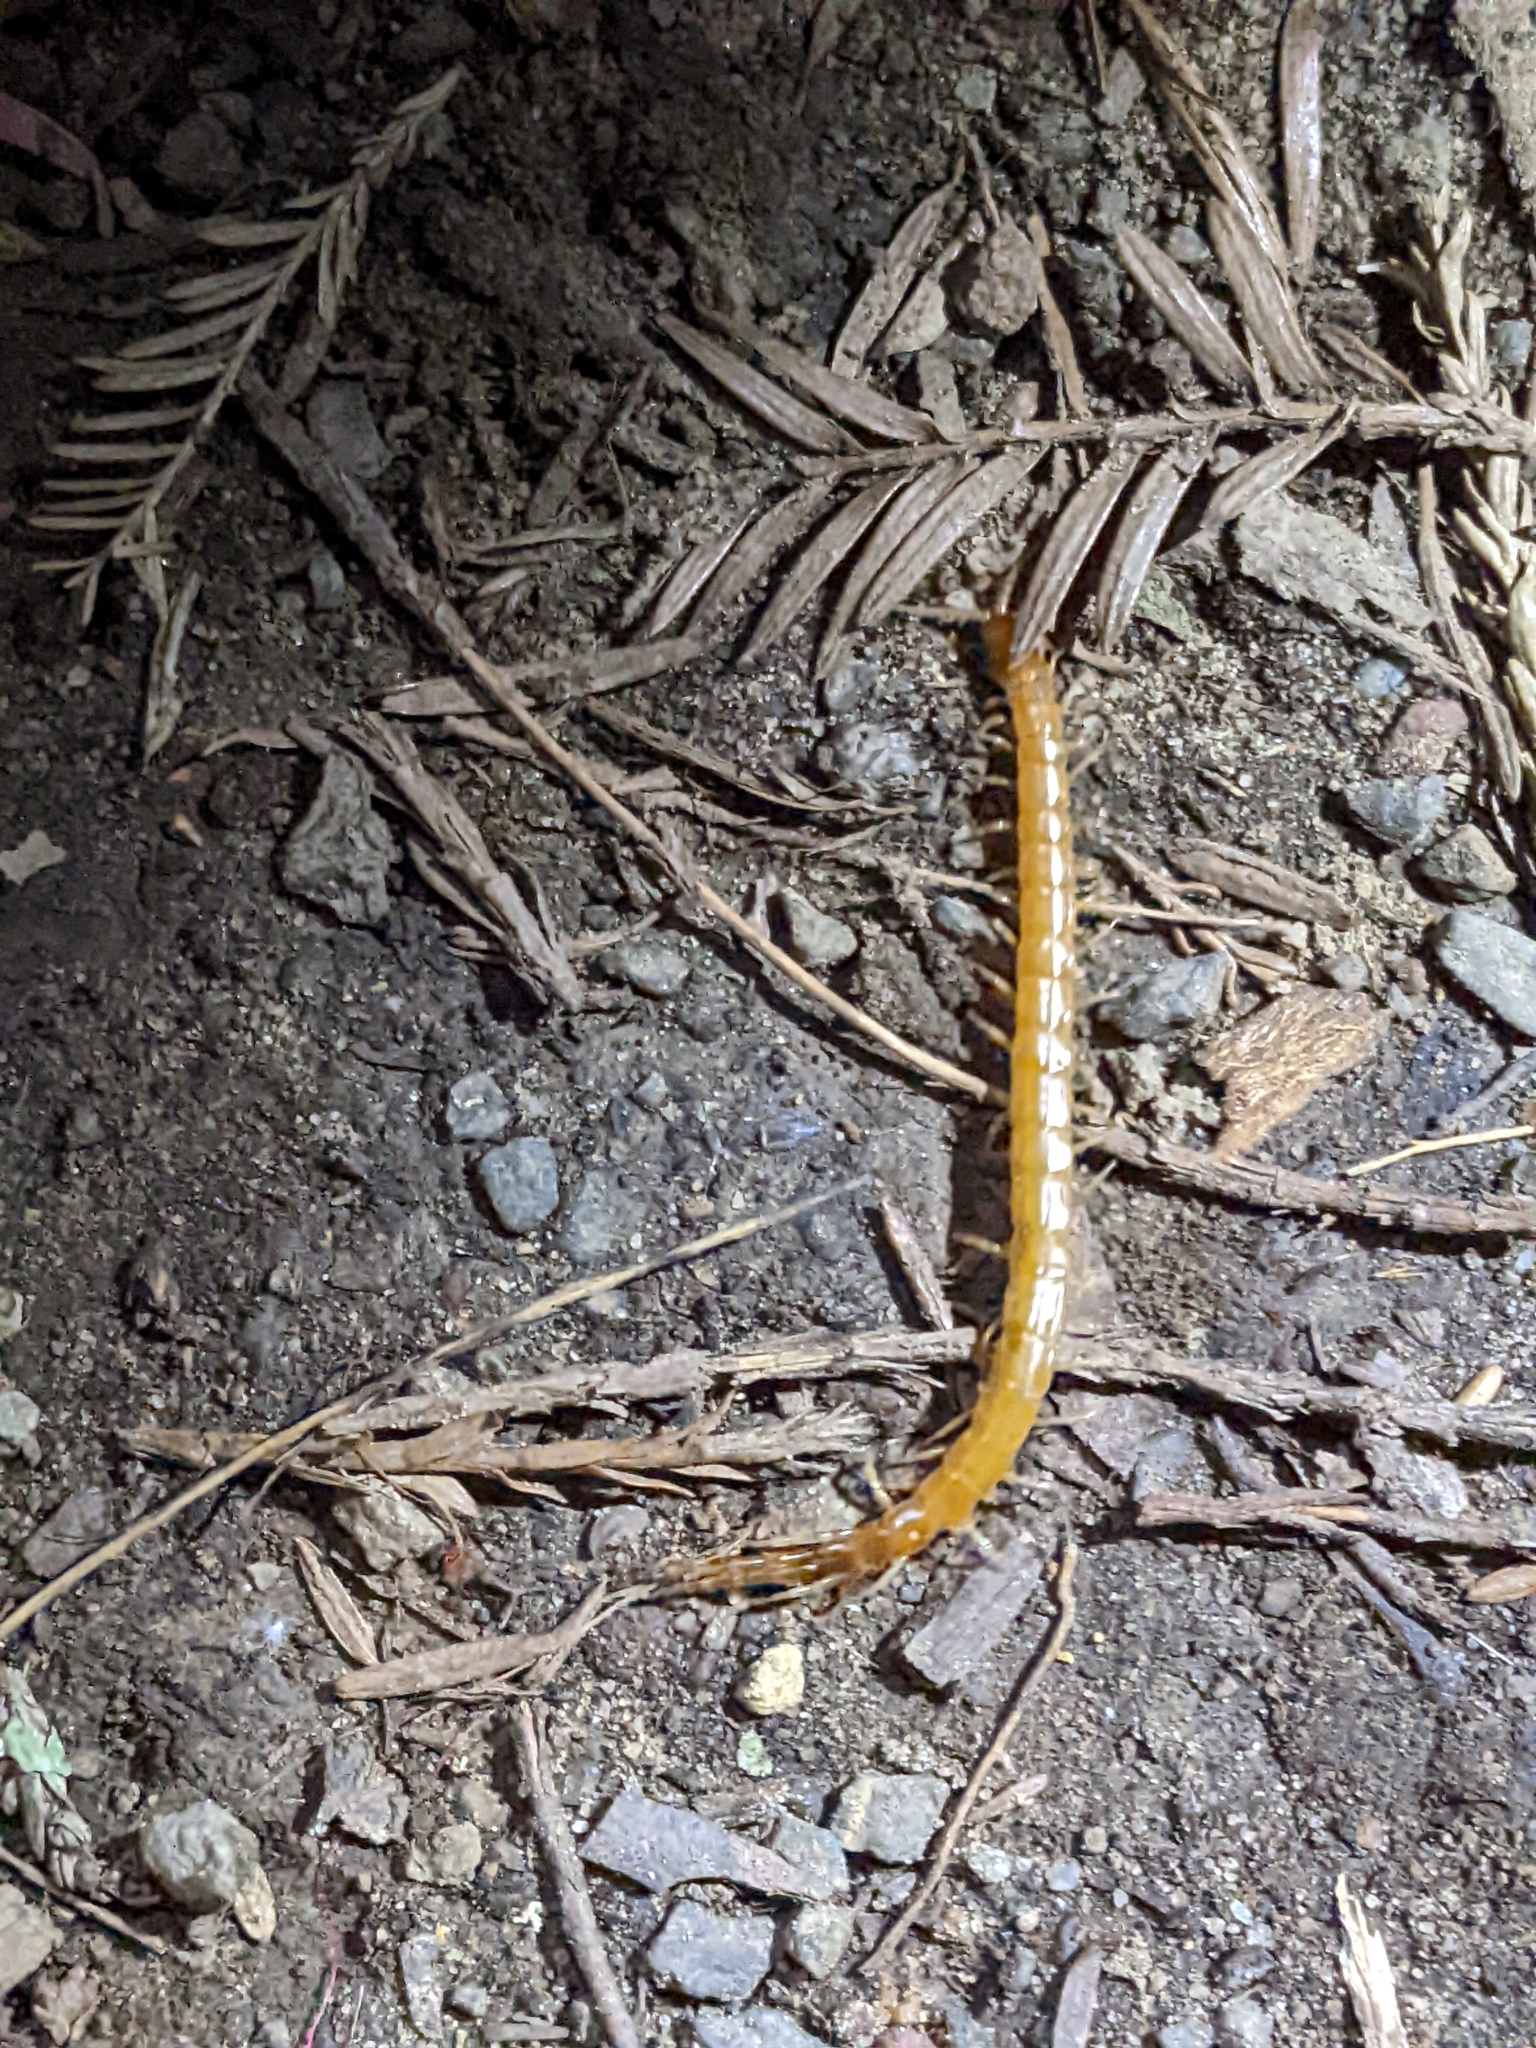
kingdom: Animalia
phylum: Arthropoda
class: Chilopoda
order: Scolopendromorpha
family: Scolopocryptopidae
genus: Scolopocryptops
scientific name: Scolopocryptops gracilis
